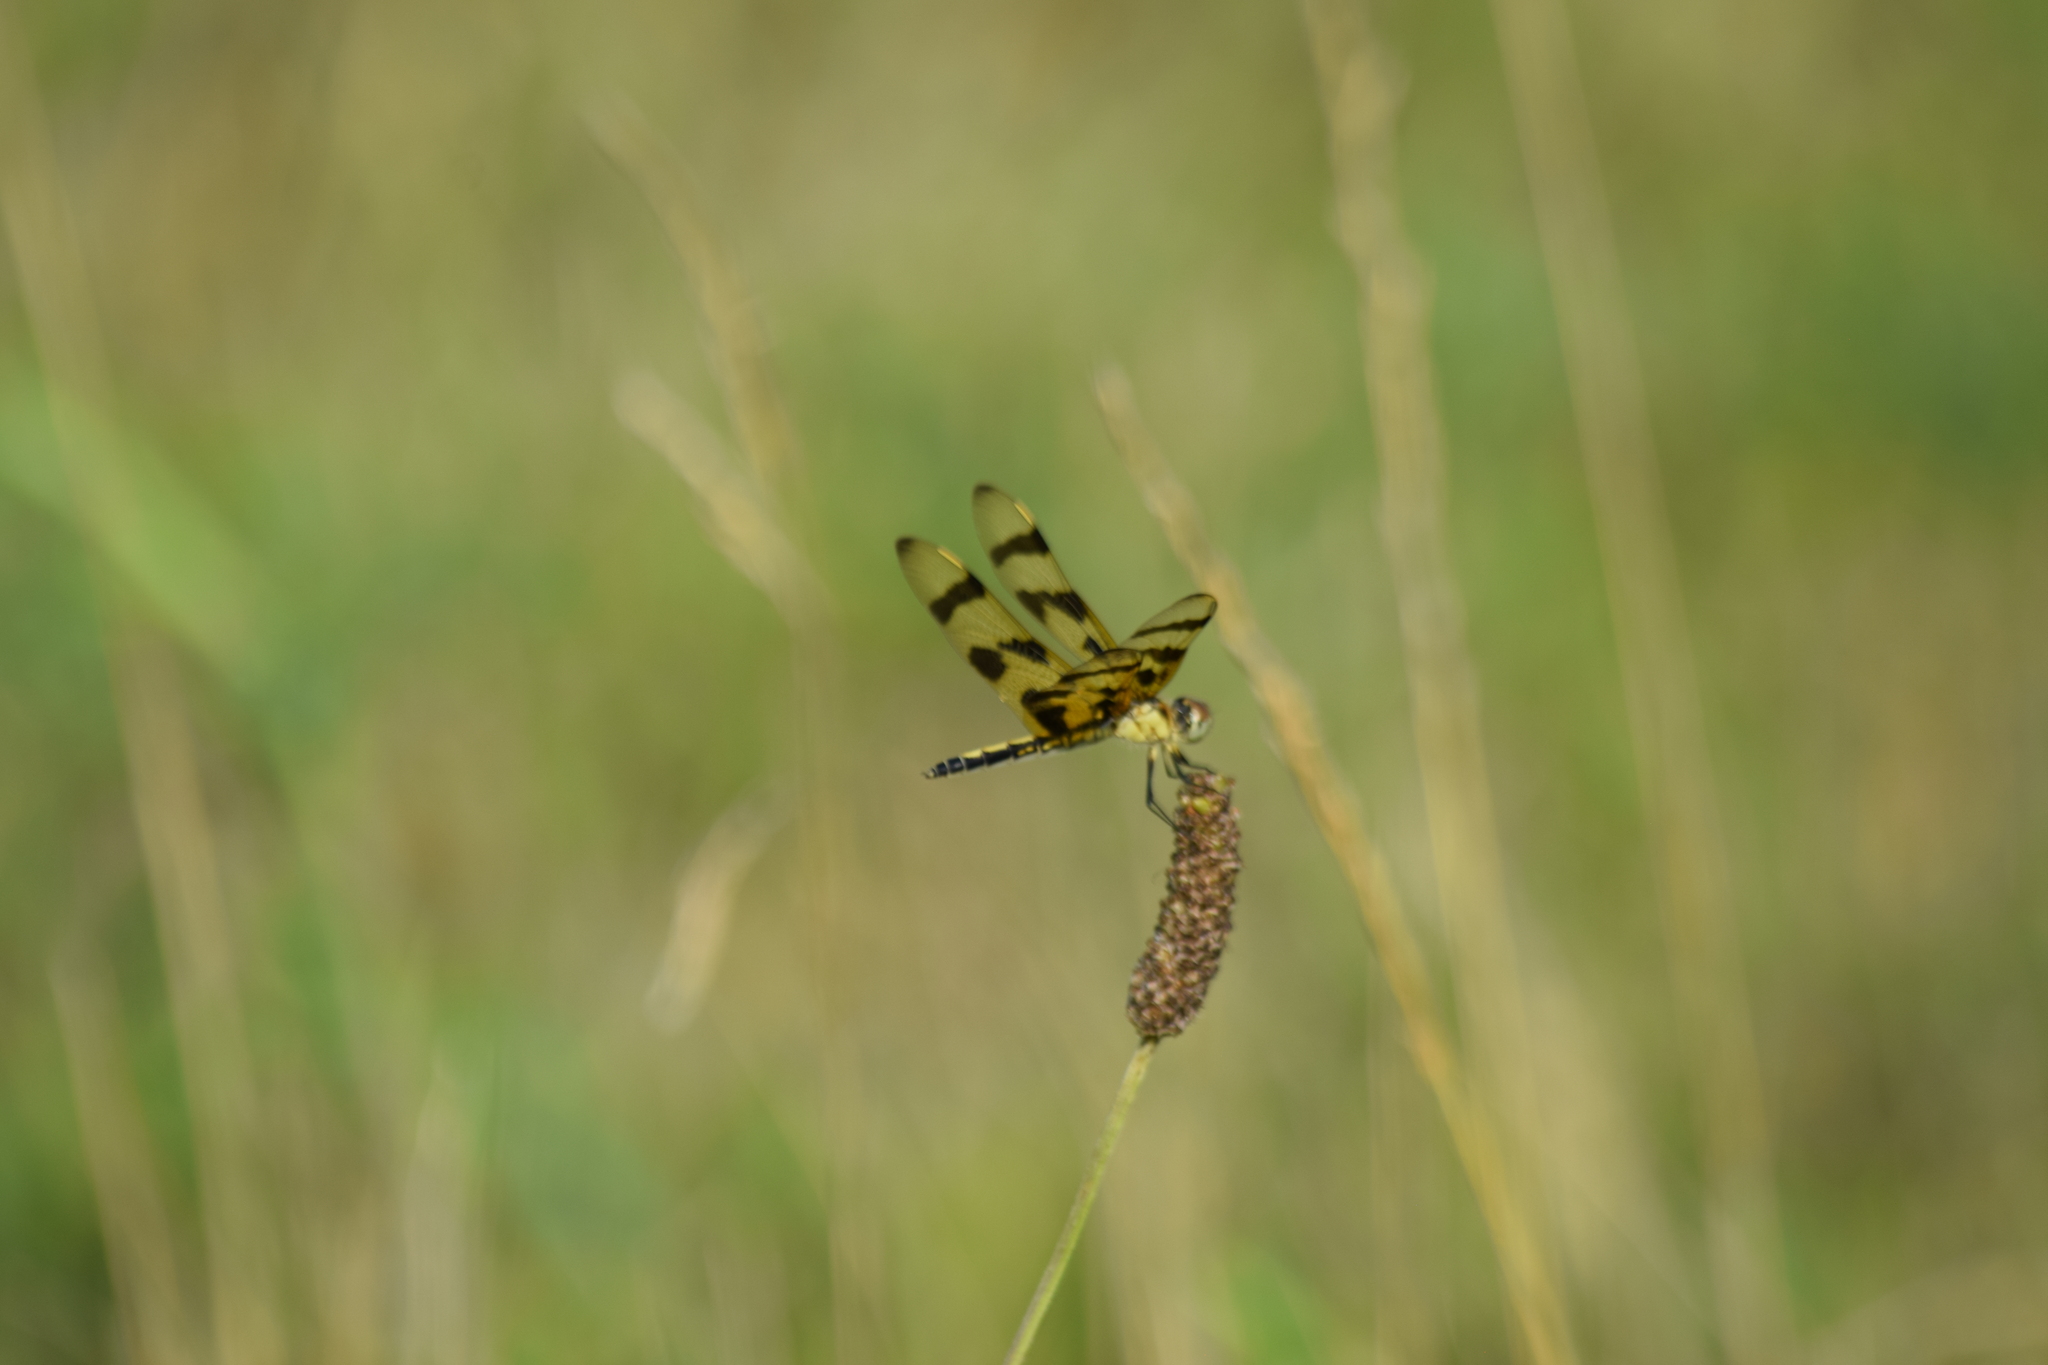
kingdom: Animalia
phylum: Arthropoda
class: Insecta
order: Odonata
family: Libellulidae
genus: Celithemis
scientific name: Celithemis eponina
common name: Halloween pennant
